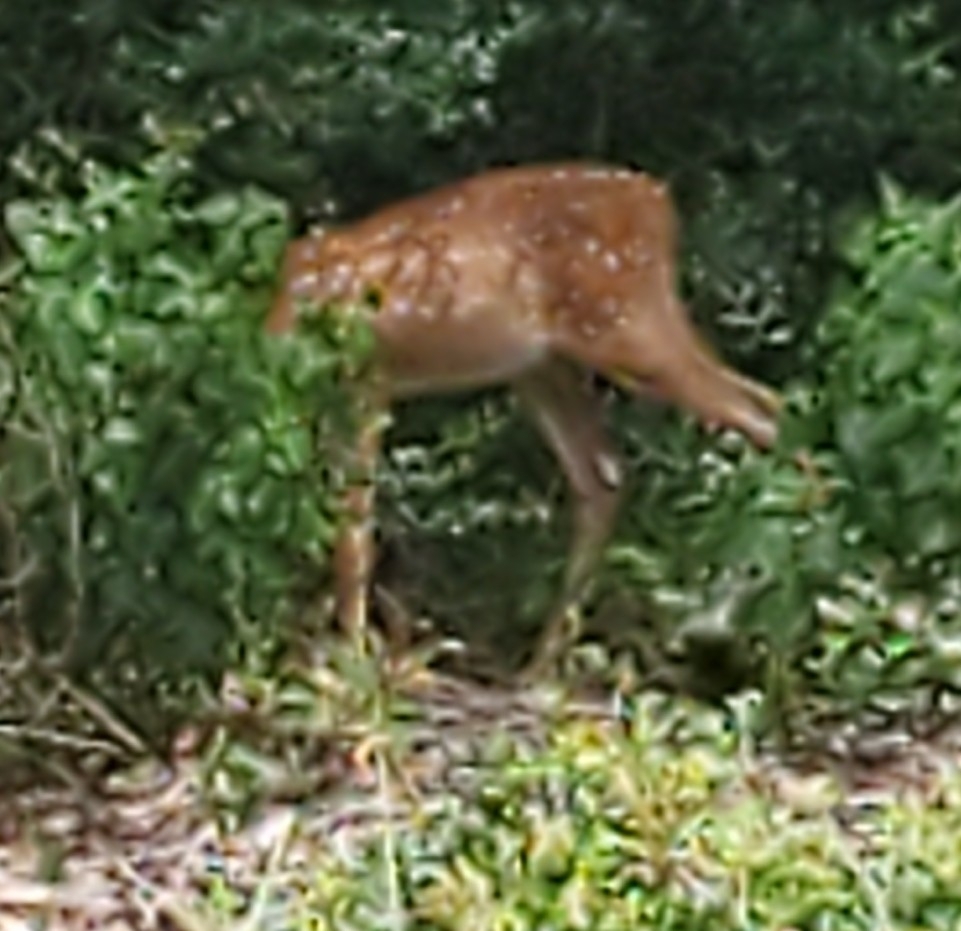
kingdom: Animalia
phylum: Chordata
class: Mammalia
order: Artiodactyla
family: Cervidae
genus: Odocoileus
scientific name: Odocoileus virginianus
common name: White-tailed deer
